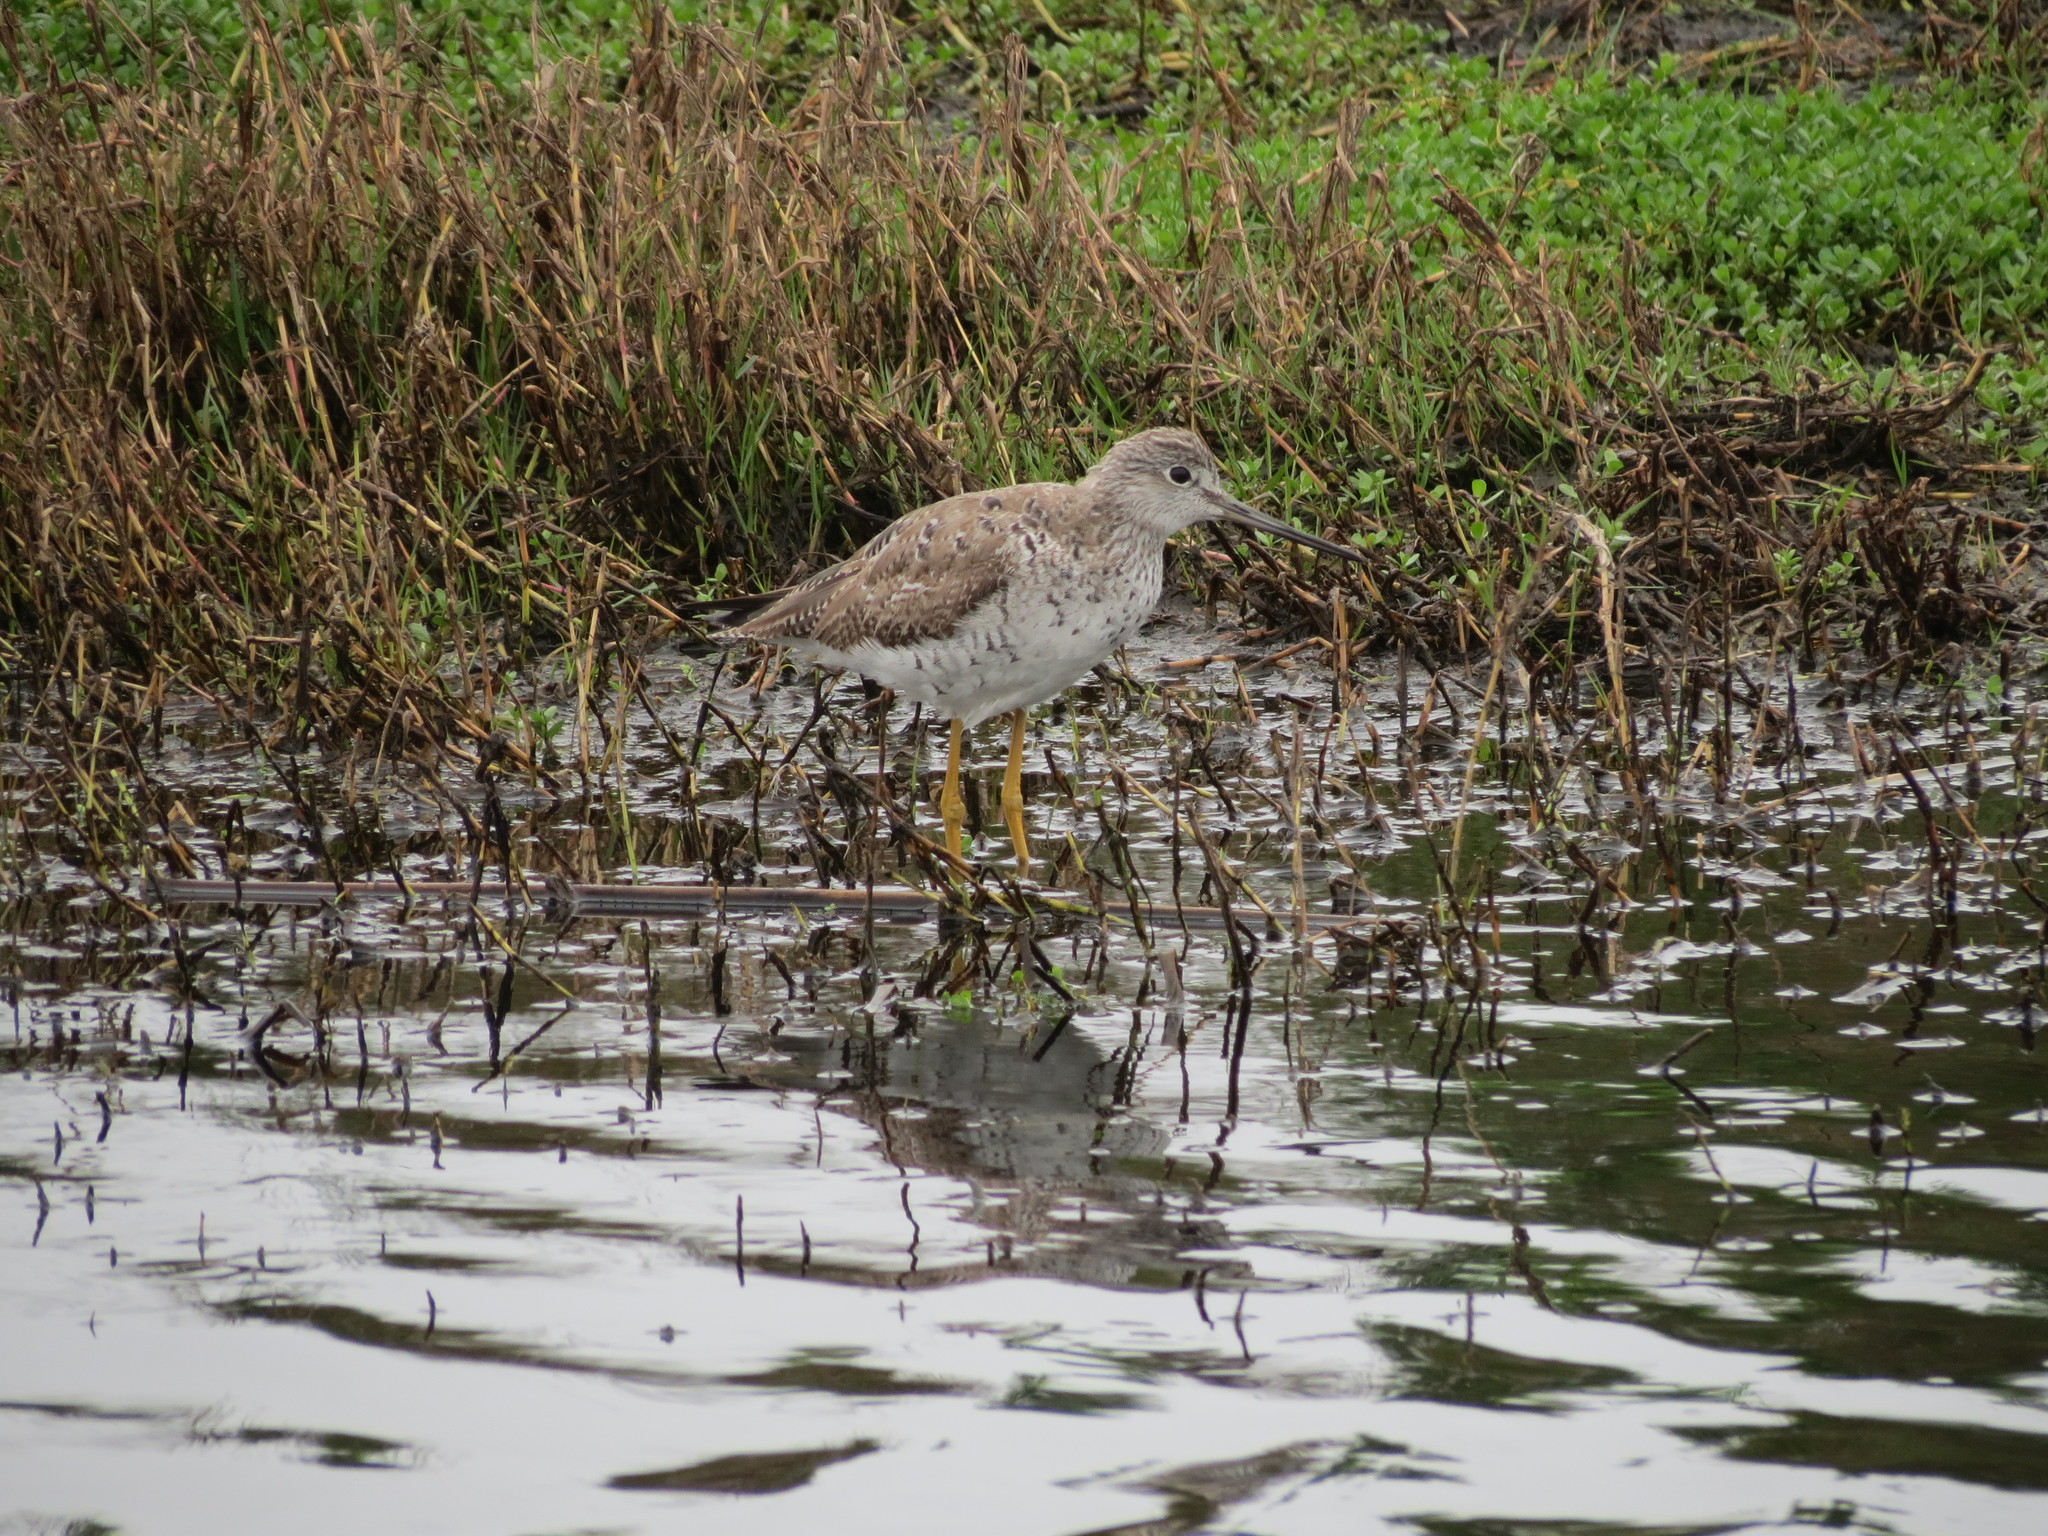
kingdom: Animalia
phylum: Chordata
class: Aves
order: Charadriiformes
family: Scolopacidae
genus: Tringa
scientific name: Tringa melanoleuca
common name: Greater yellowlegs
